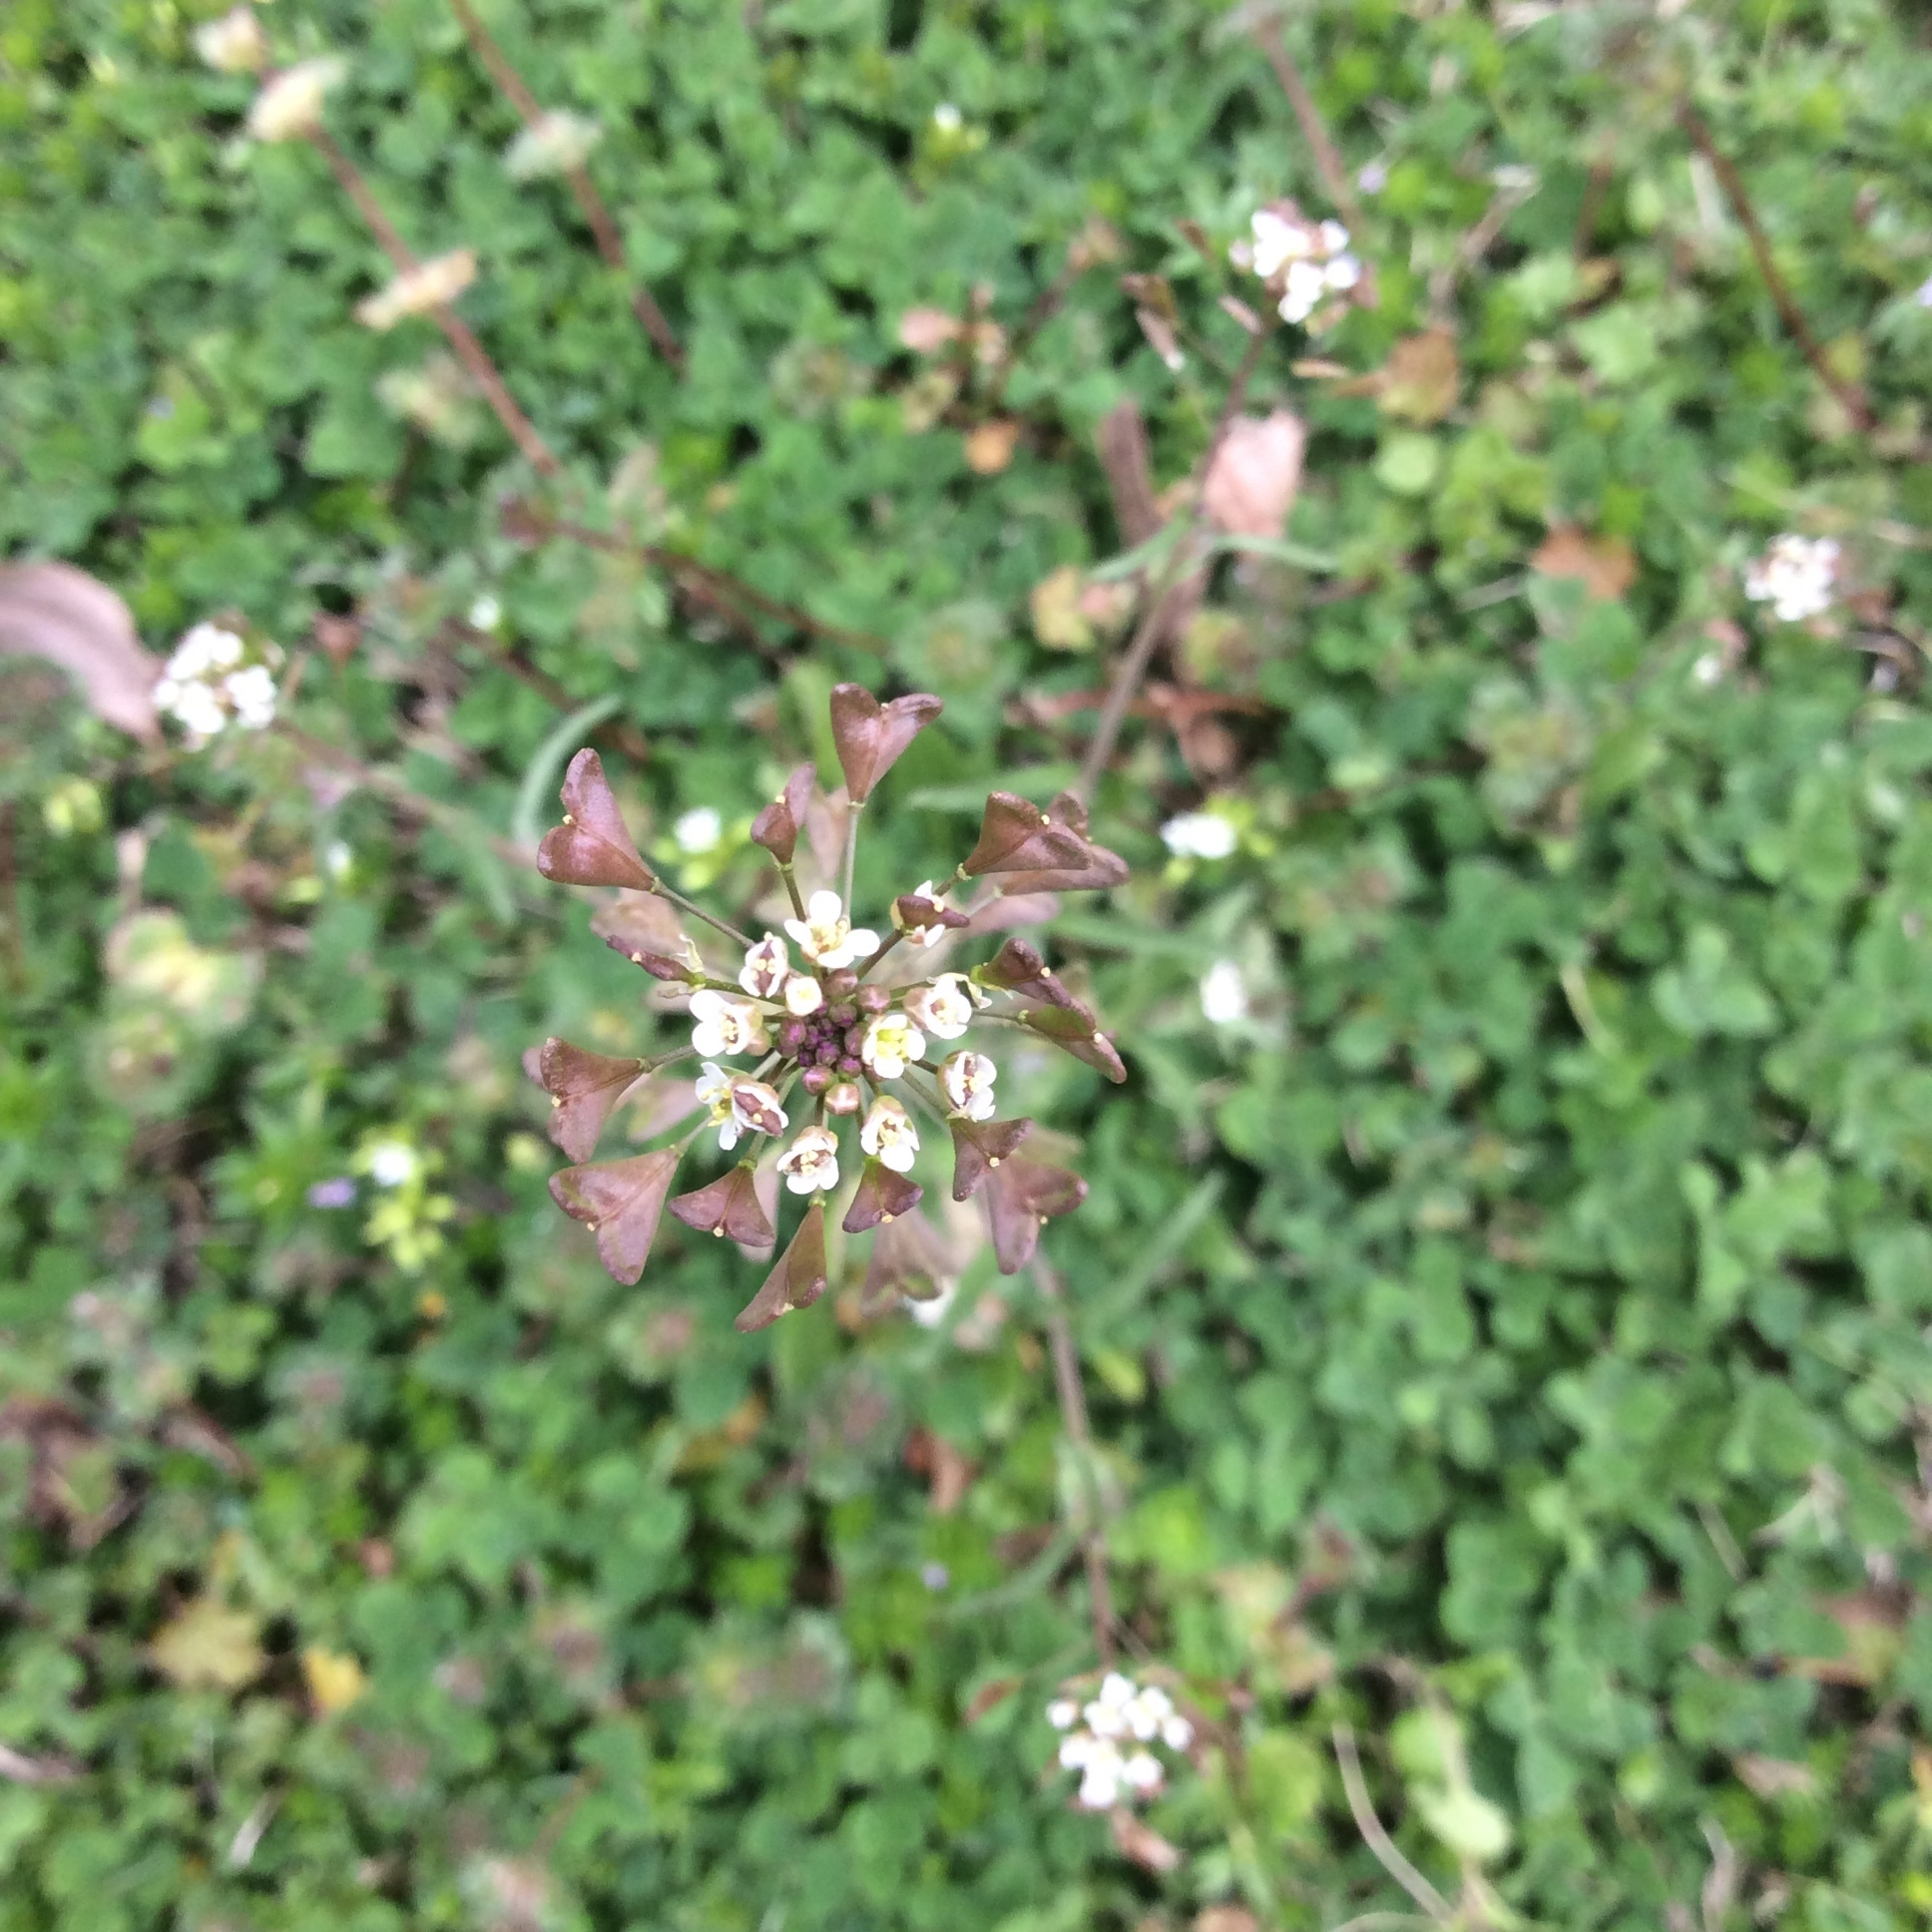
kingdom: Plantae
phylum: Tracheophyta
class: Magnoliopsida
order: Brassicales
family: Brassicaceae
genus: Capsella
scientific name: Capsella bursa-pastoris
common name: Shepherd's purse
